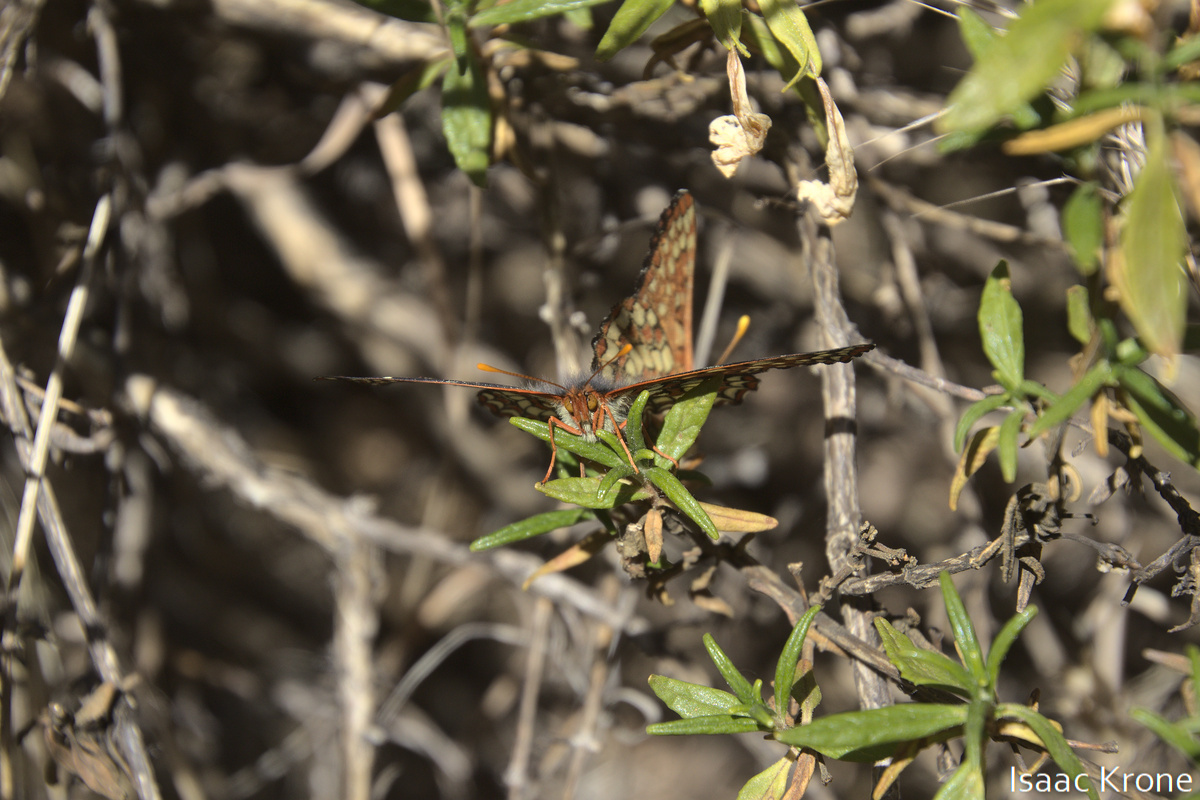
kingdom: Animalia
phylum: Arthropoda
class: Insecta
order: Lepidoptera
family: Nymphalidae
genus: Occidryas
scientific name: Occidryas chalcedona
